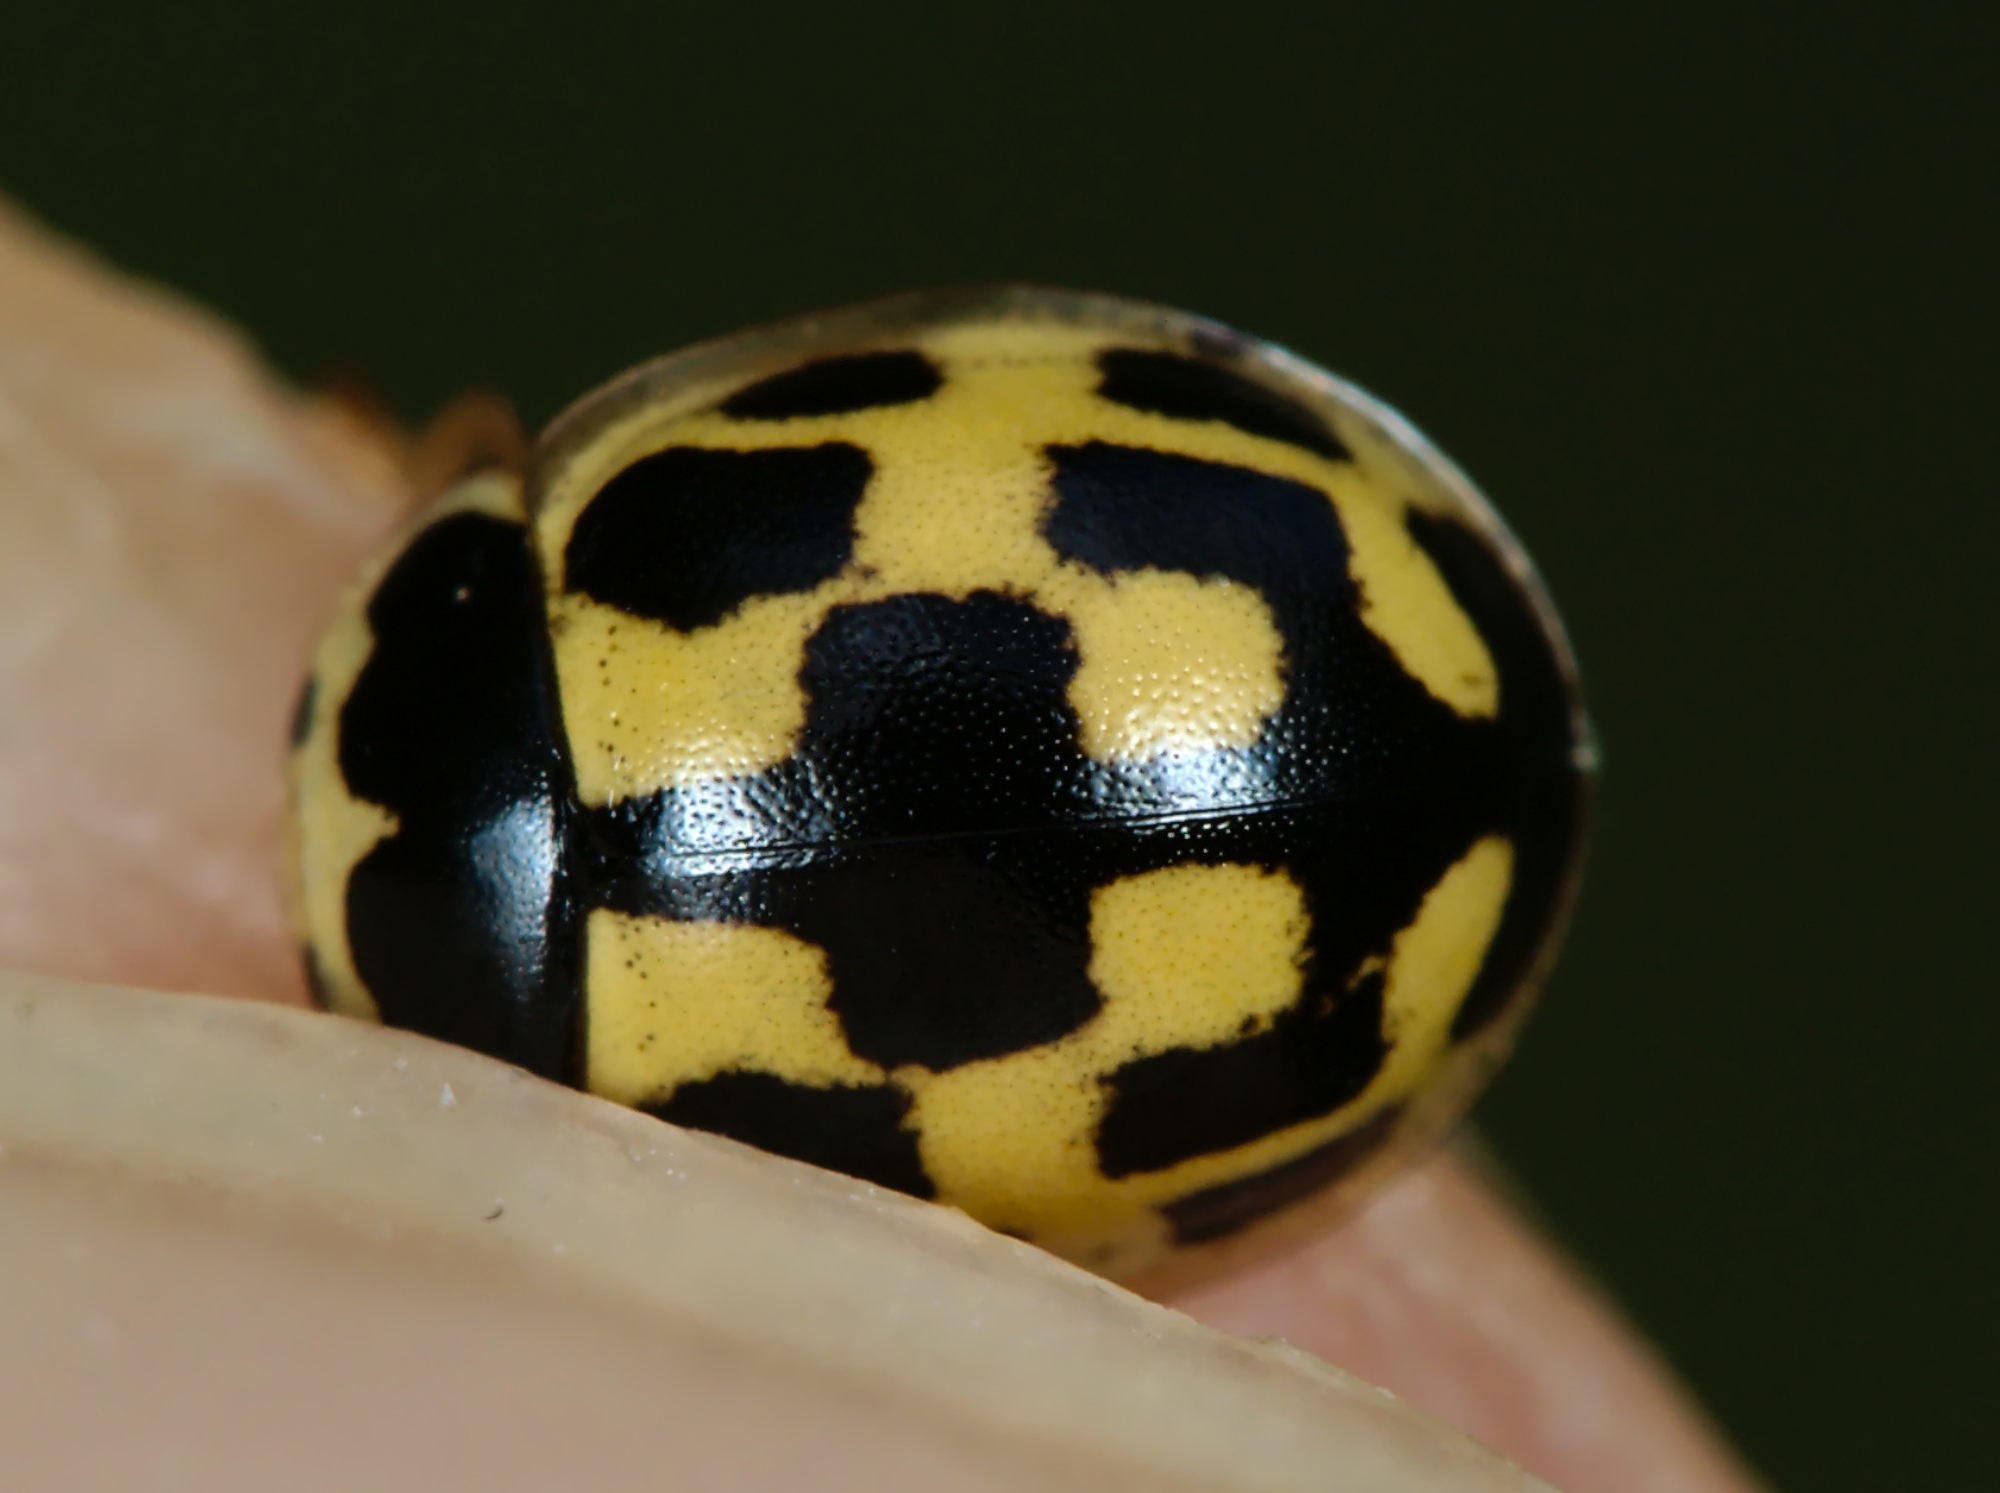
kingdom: Animalia
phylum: Arthropoda
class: Insecta
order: Coleoptera
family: Coccinellidae
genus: Propylaea
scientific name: Propylaea quatuordecimpunctata
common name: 14-spotted ladybird beetle
